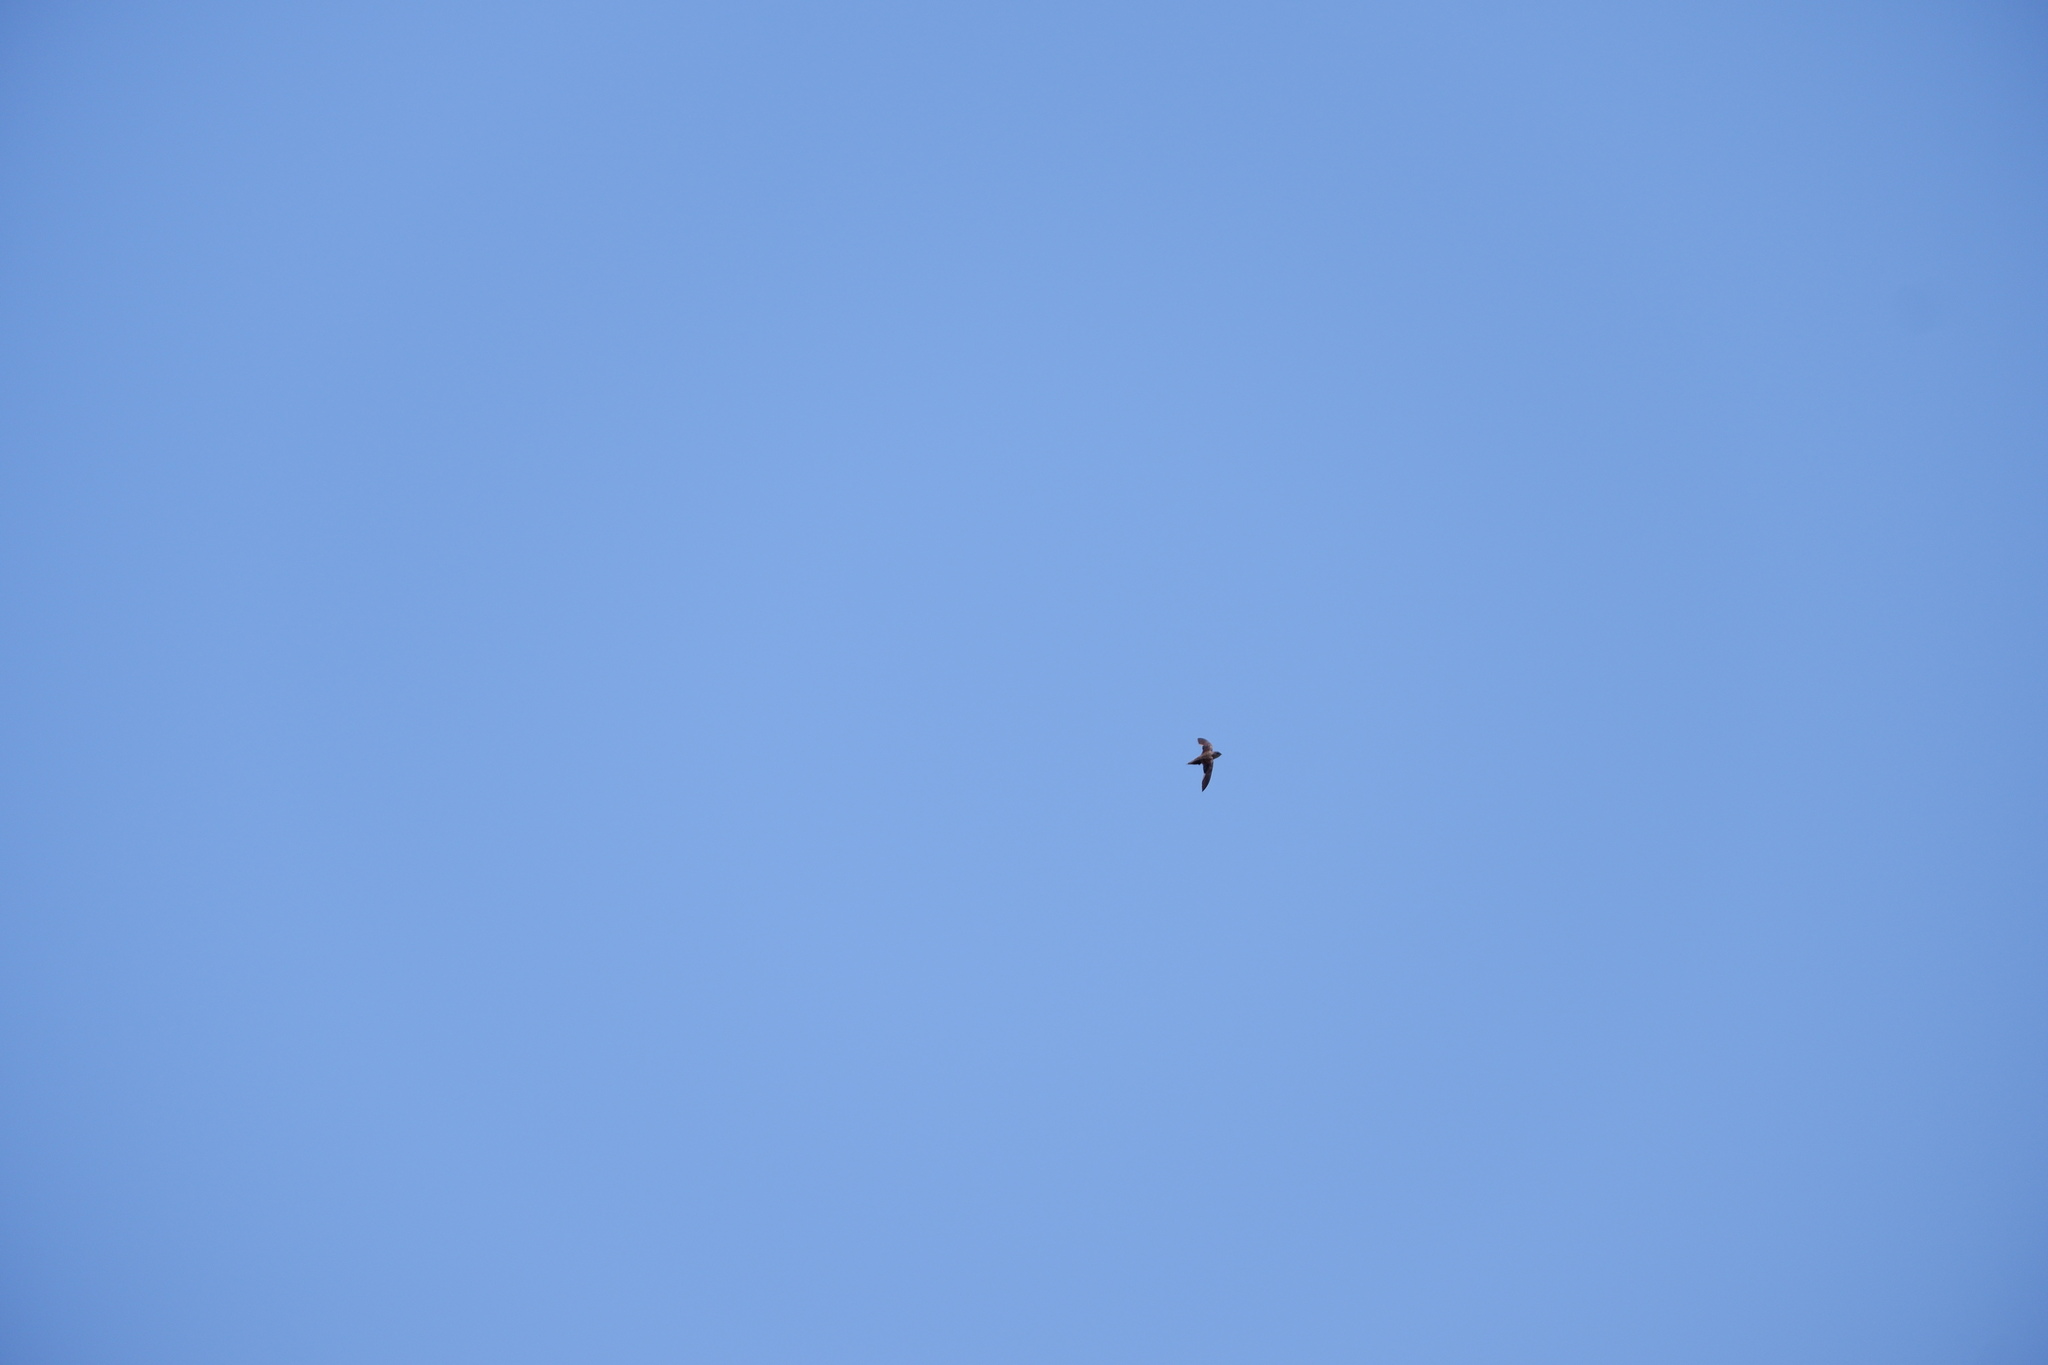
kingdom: Animalia
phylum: Chordata
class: Aves
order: Apodiformes
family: Apodidae
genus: Chaetura
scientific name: Chaetura pelagica
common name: Chimney swift
